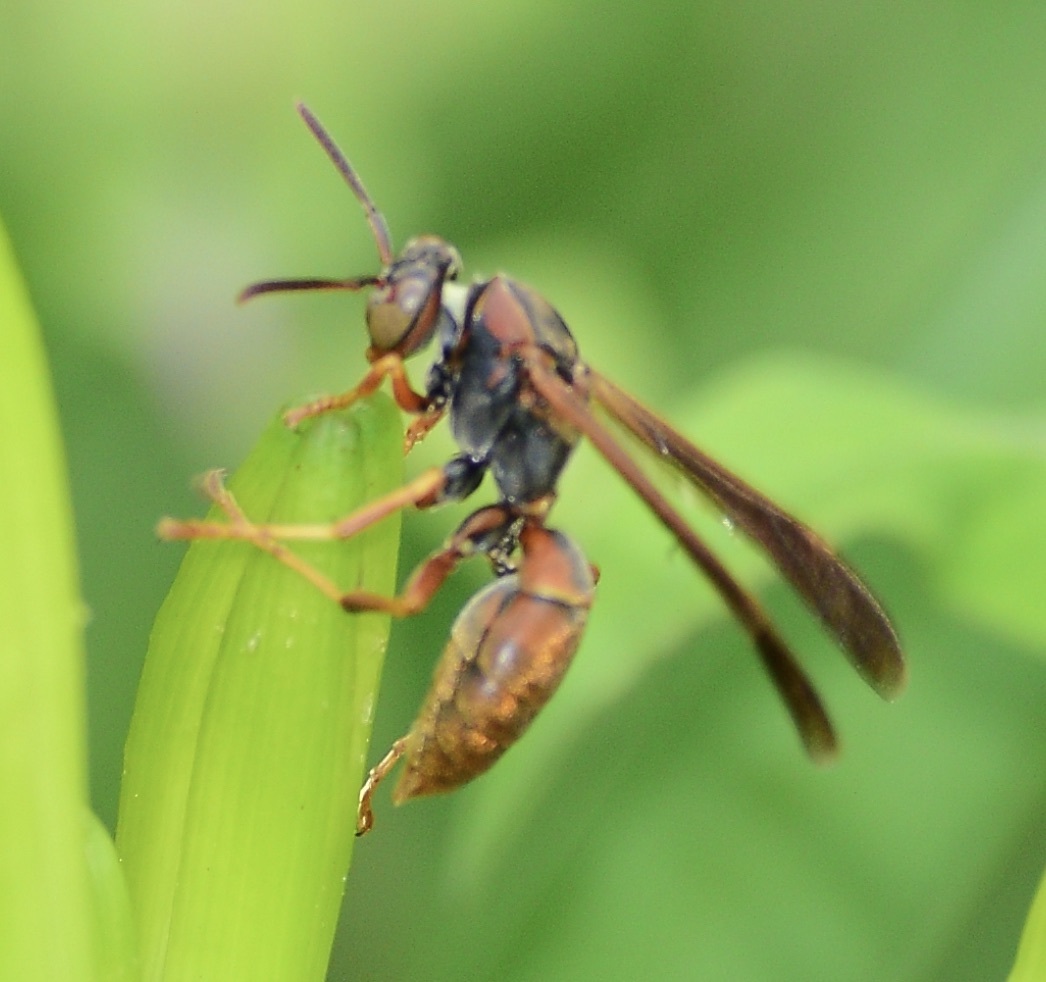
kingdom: Animalia
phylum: Arthropoda
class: Insecta
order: Hymenoptera
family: Eumenidae
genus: Polistes
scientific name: Polistes fuscatus
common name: Dark paper wasp
